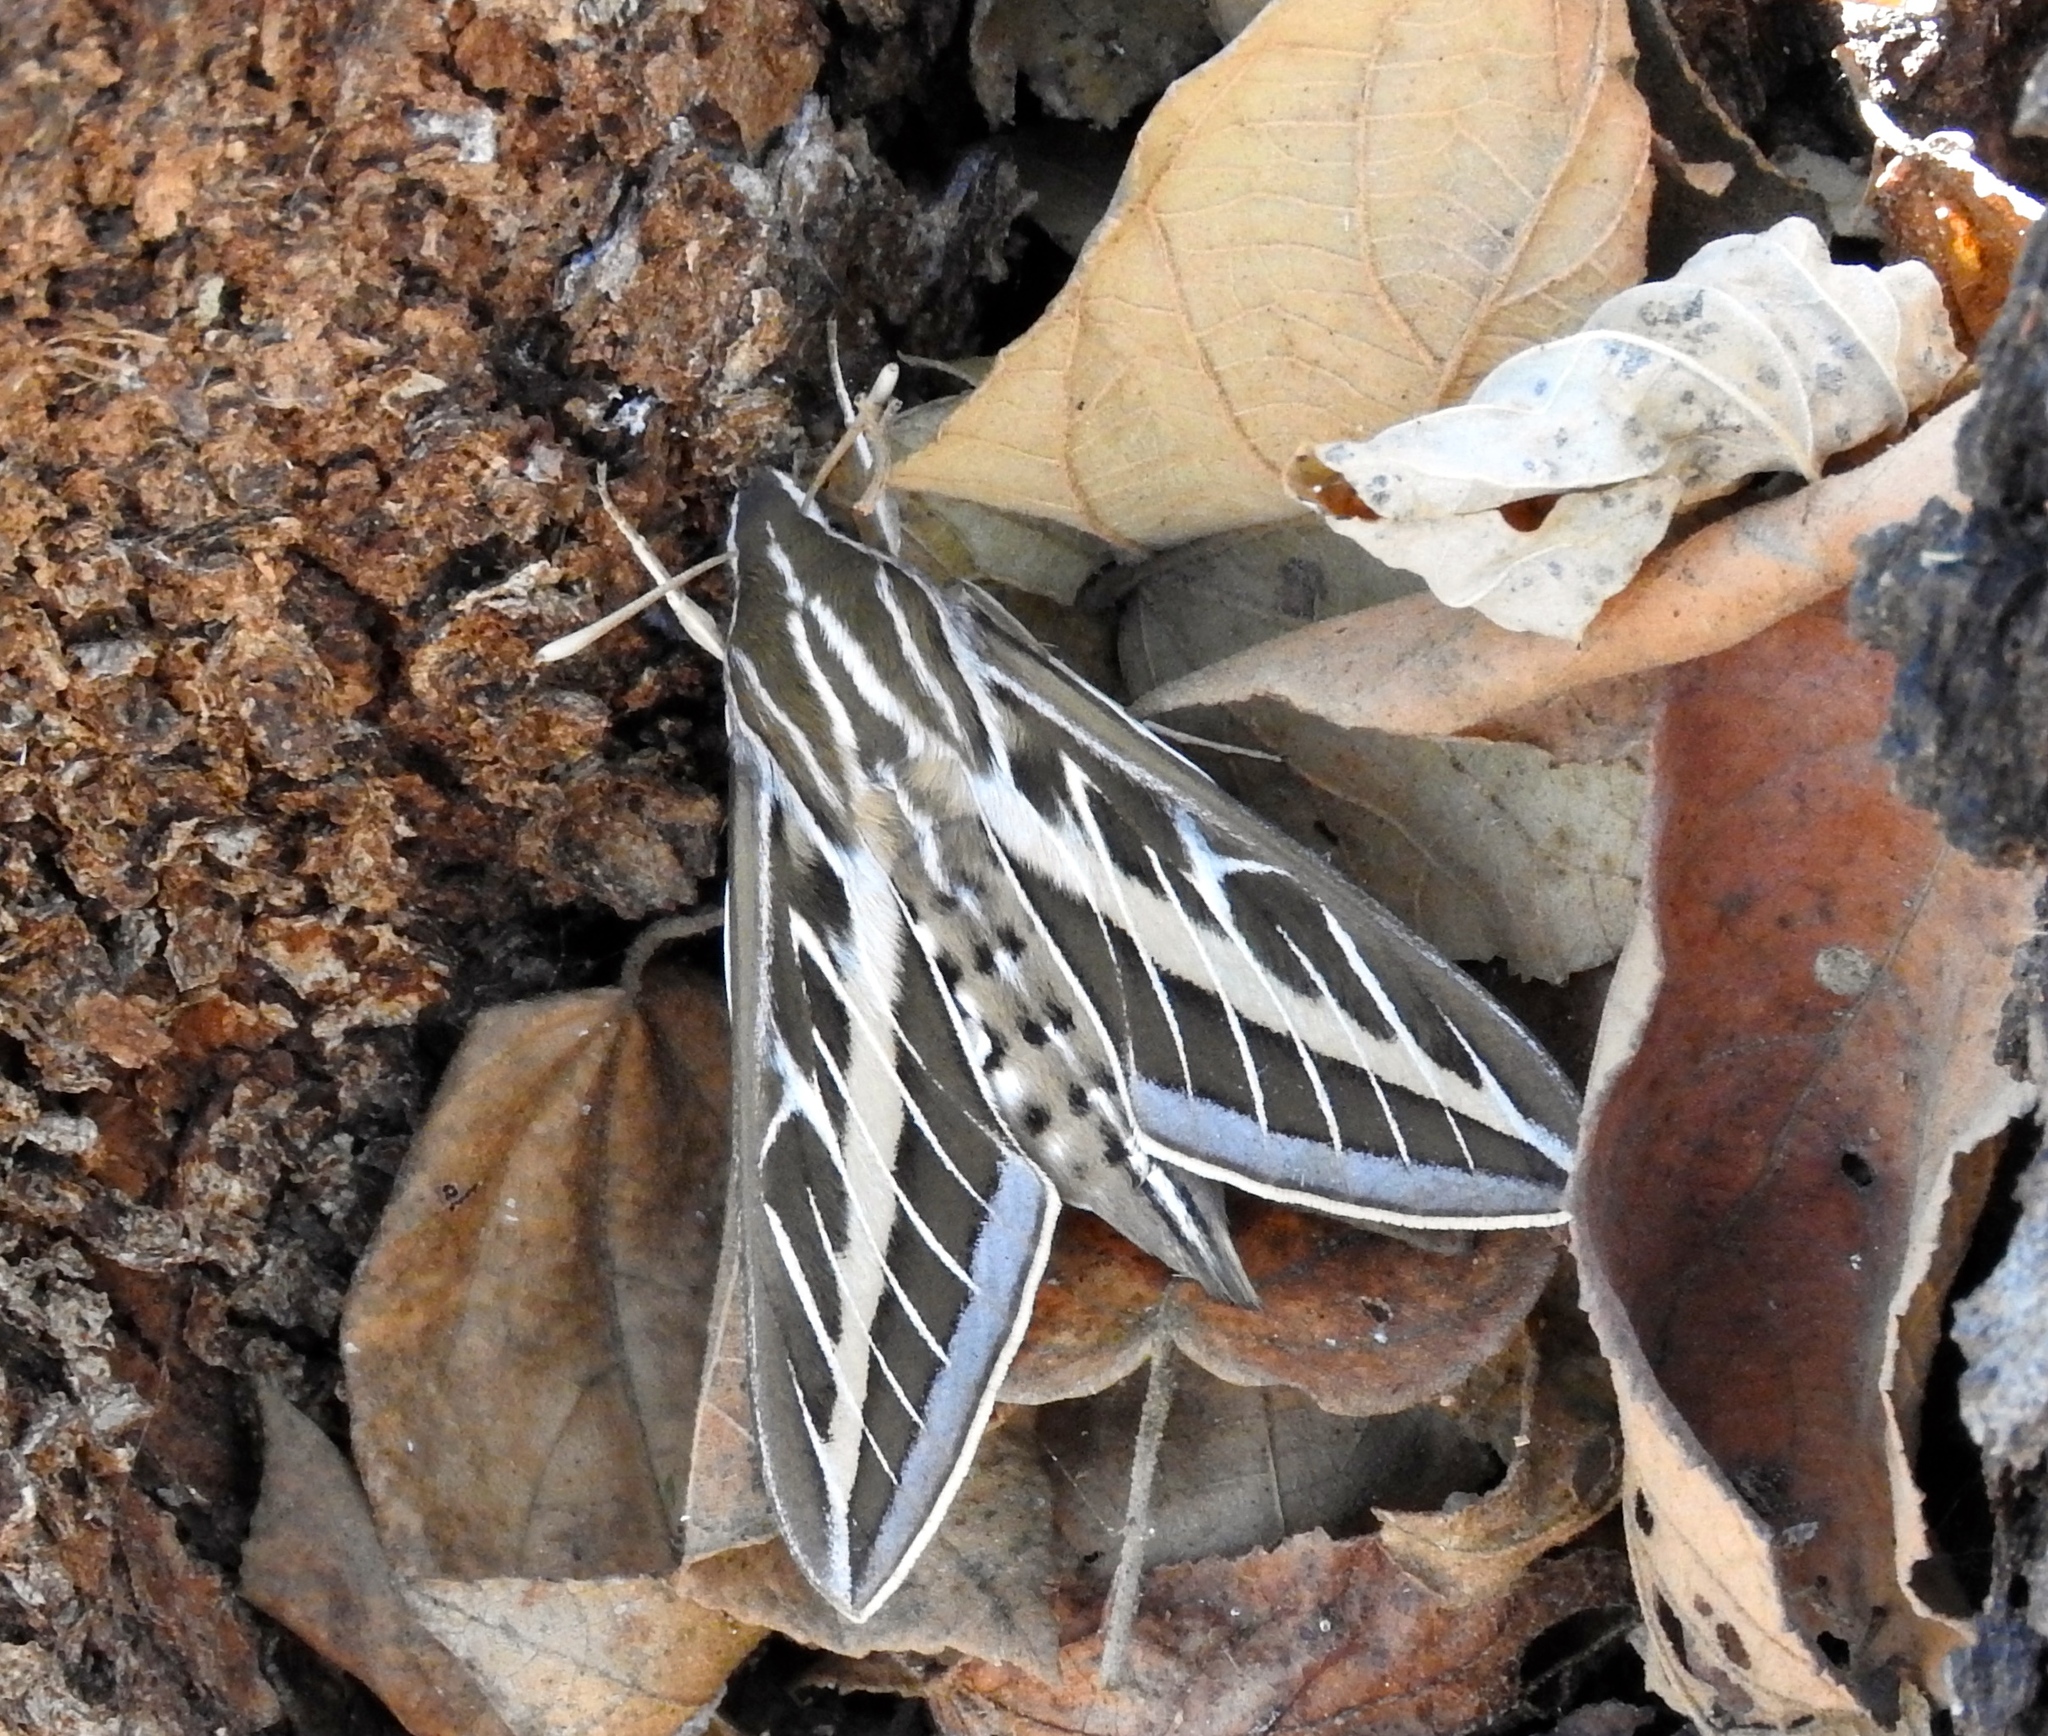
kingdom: Animalia
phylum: Arthropoda
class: Insecta
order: Lepidoptera
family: Sphingidae
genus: Hyles
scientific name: Hyles lineata
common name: White-lined sphinx
